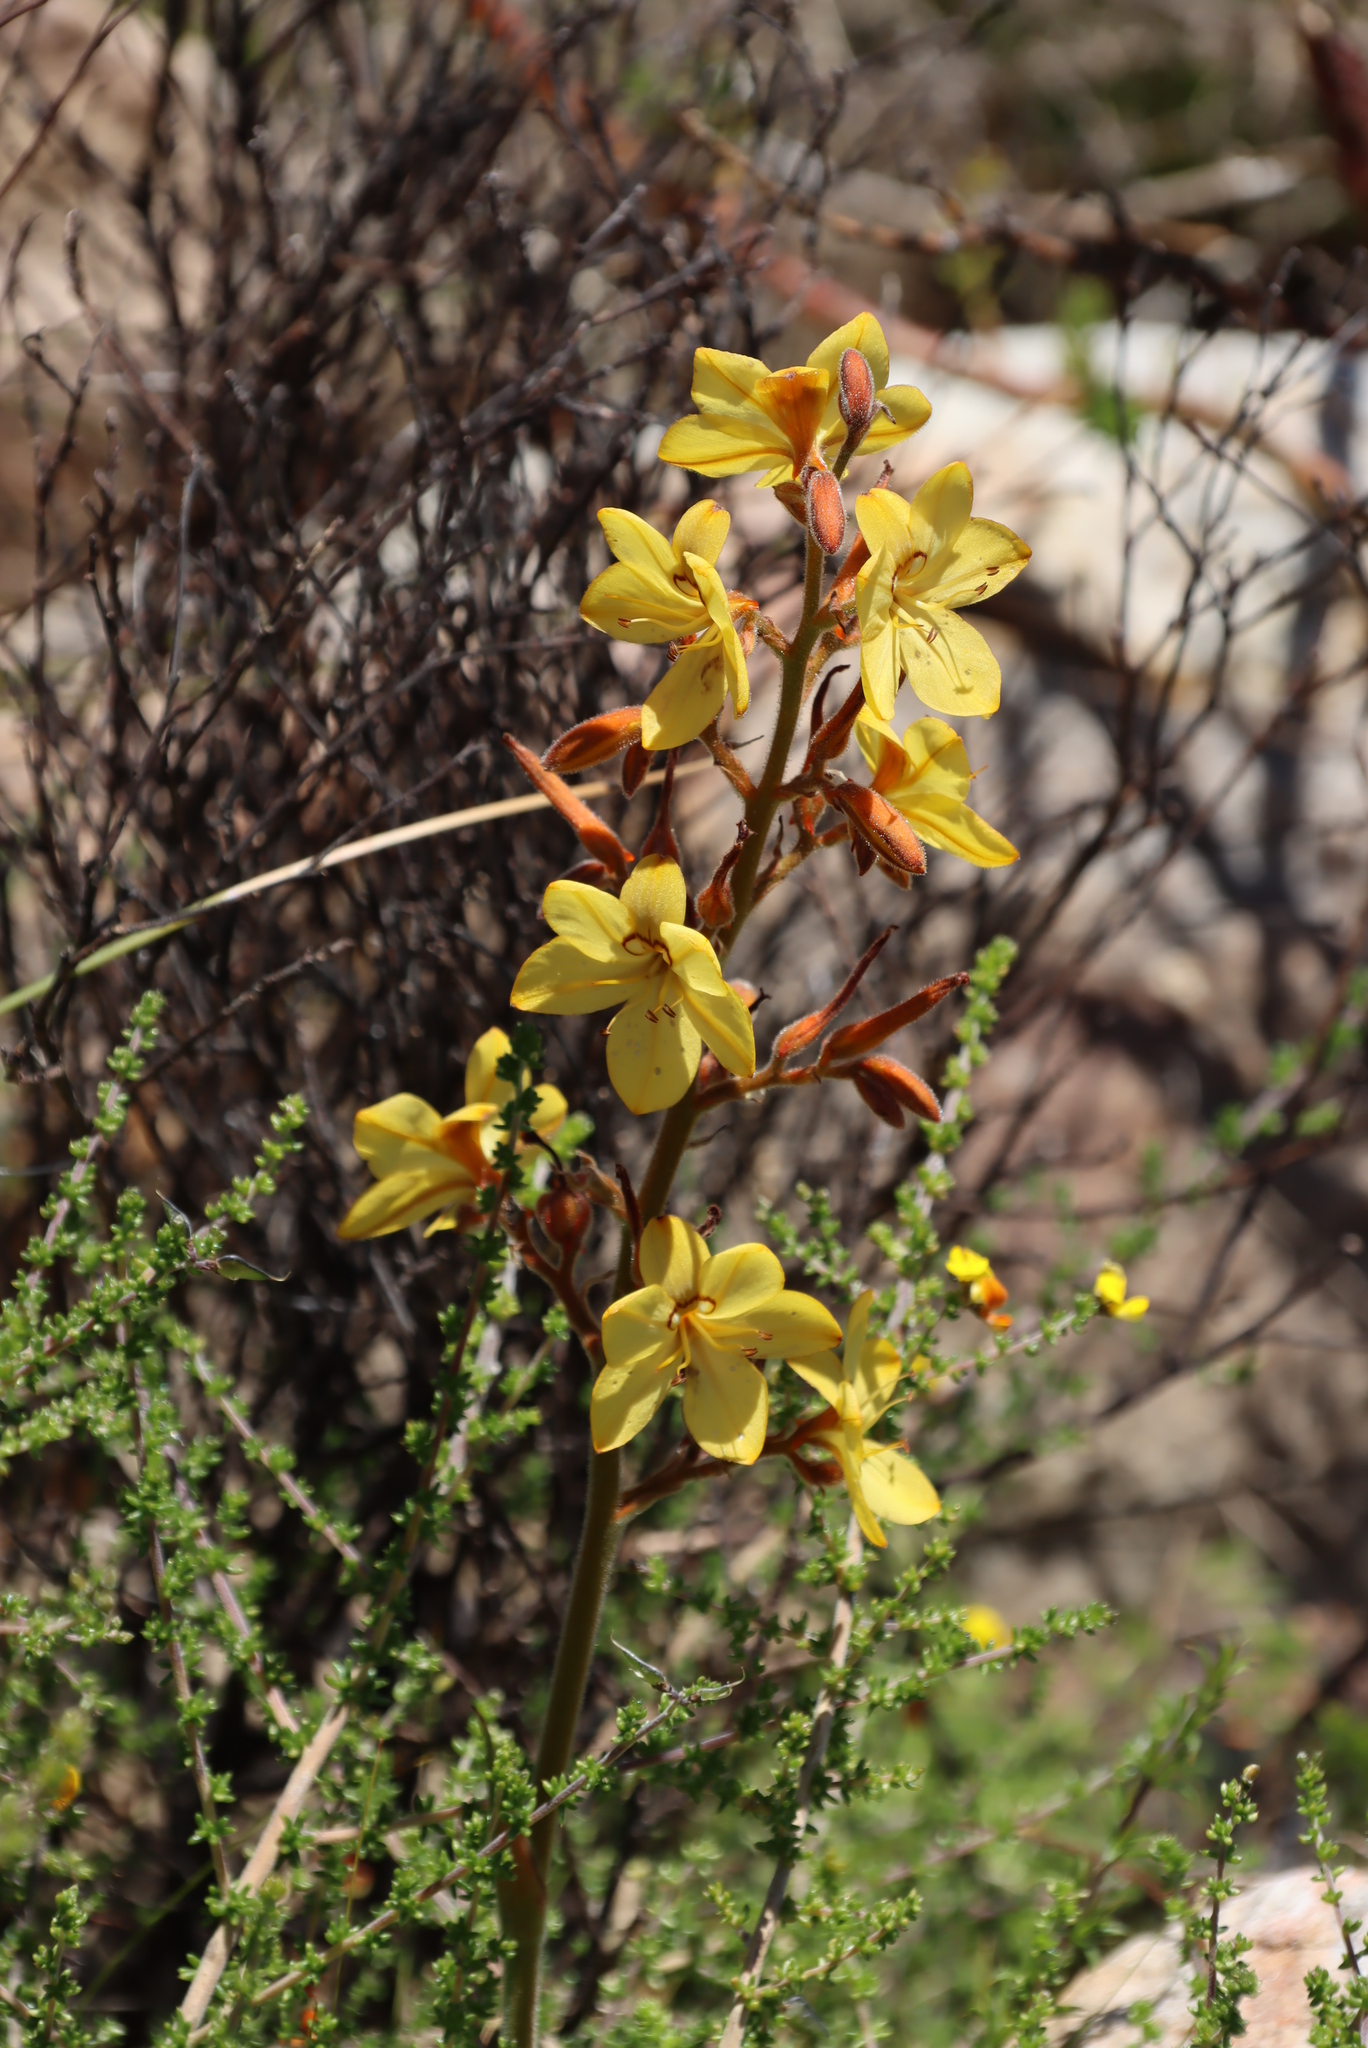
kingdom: Plantae
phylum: Tracheophyta
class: Liliopsida
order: Commelinales
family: Haemodoraceae
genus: Wachendorfia
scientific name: Wachendorfia thyrsiflora
